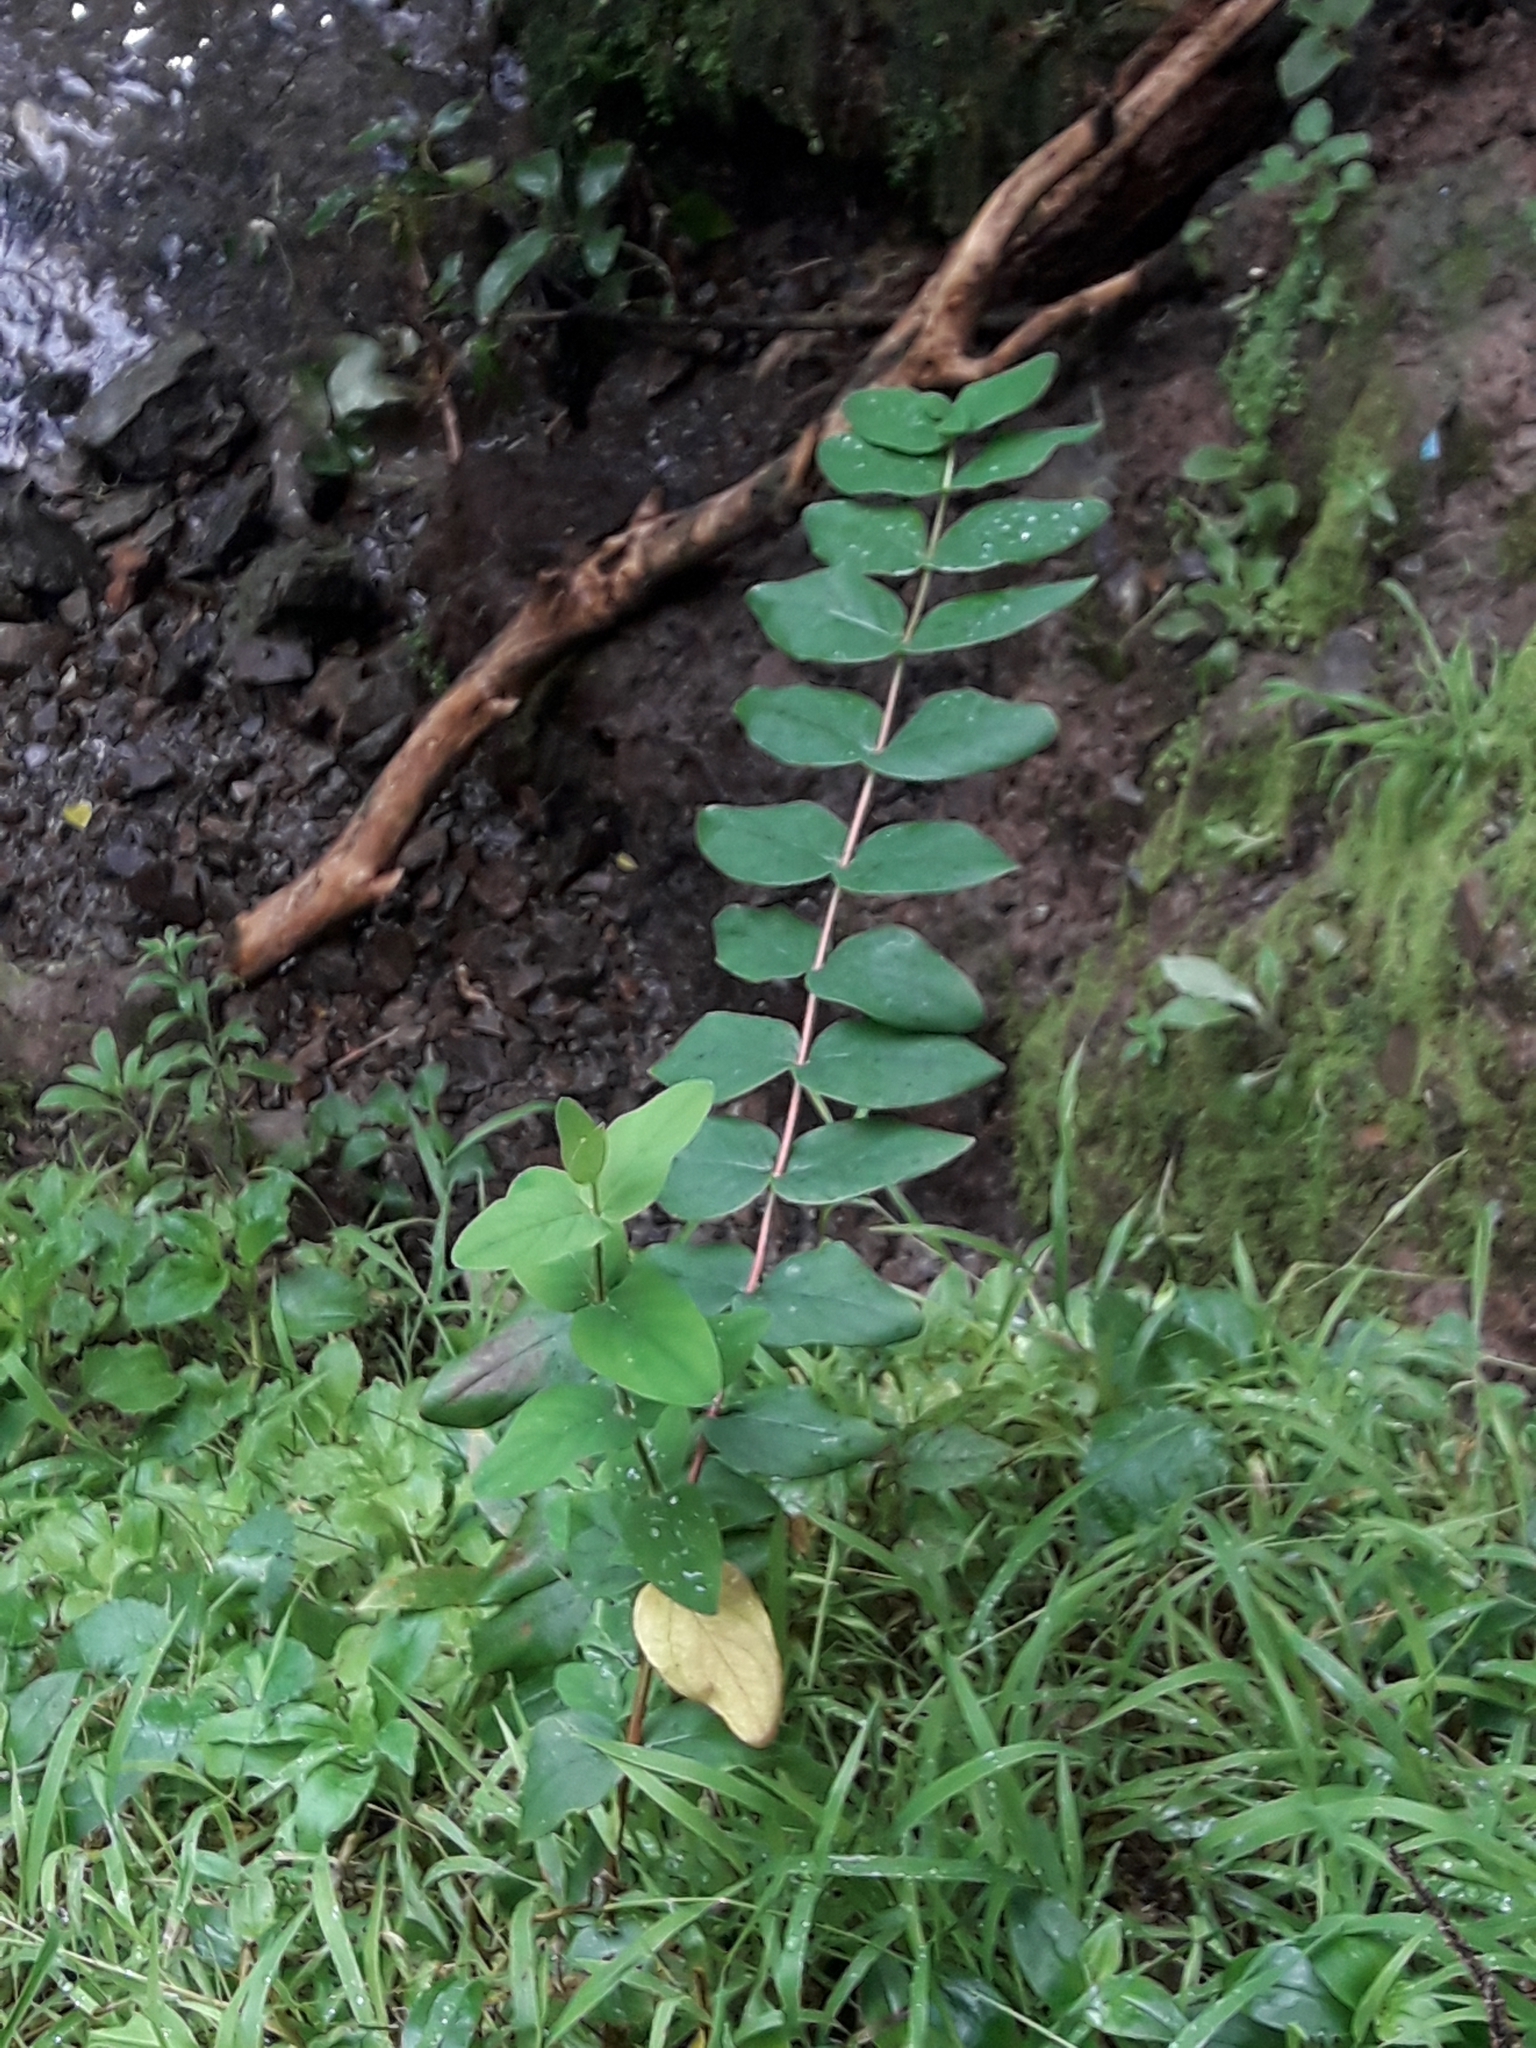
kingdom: Plantae
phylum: Tracheophyta
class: Magnoliopsida
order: Malpighiales
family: Hypericaceae
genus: Hypericum
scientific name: Hypericum androsaemum
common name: Sweet-amber
